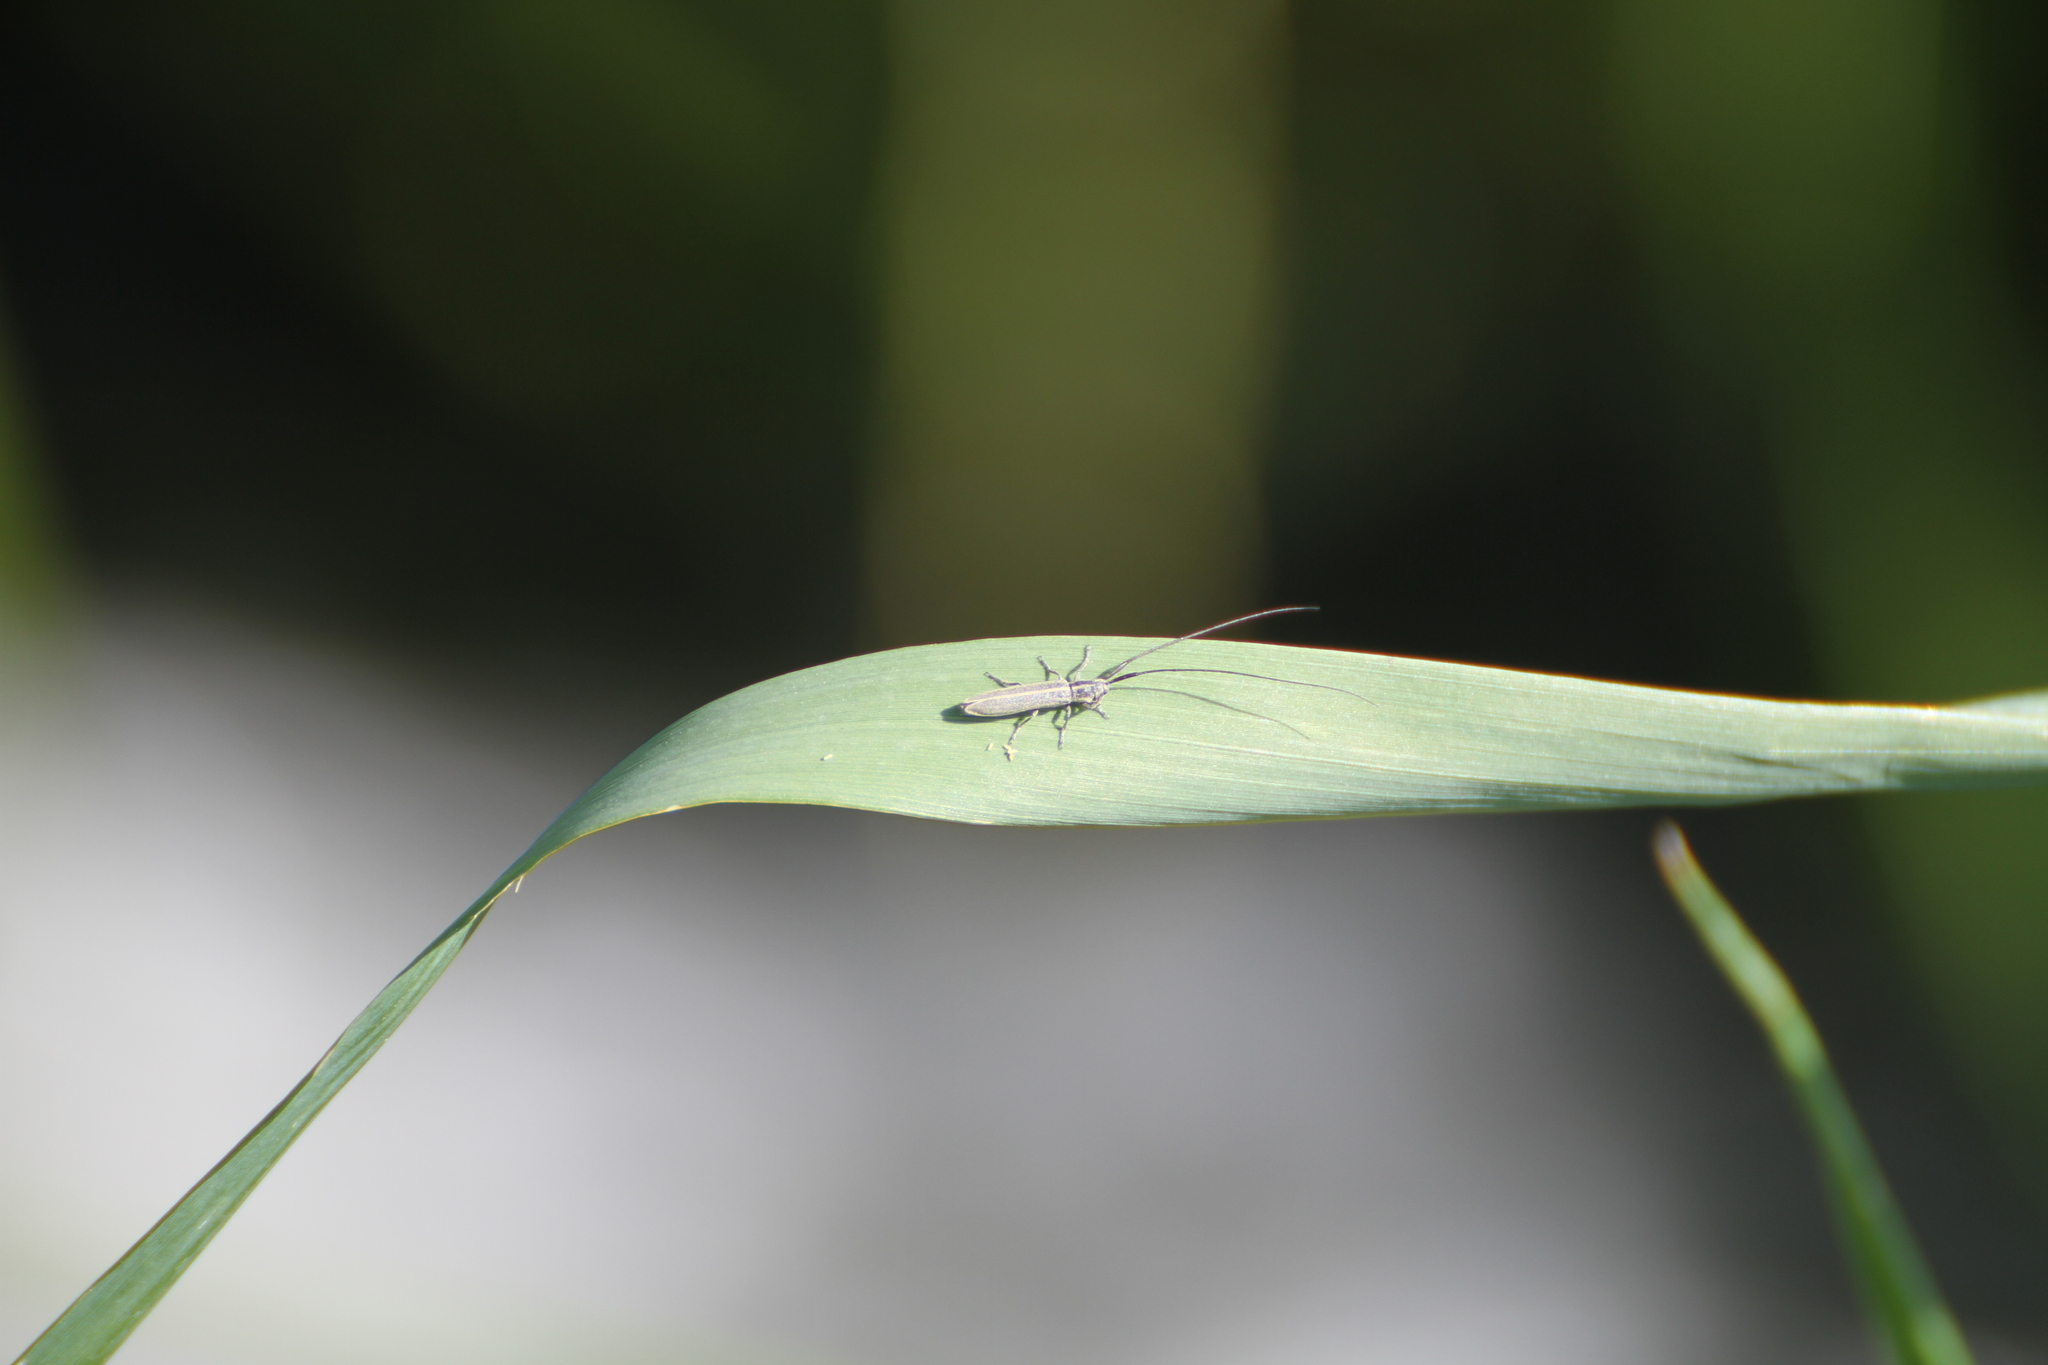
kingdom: Animalia
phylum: Arthropoda
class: Insecta
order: Coleoptera
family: Cerambycidae
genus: Calamobius
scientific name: Calamobius filum
